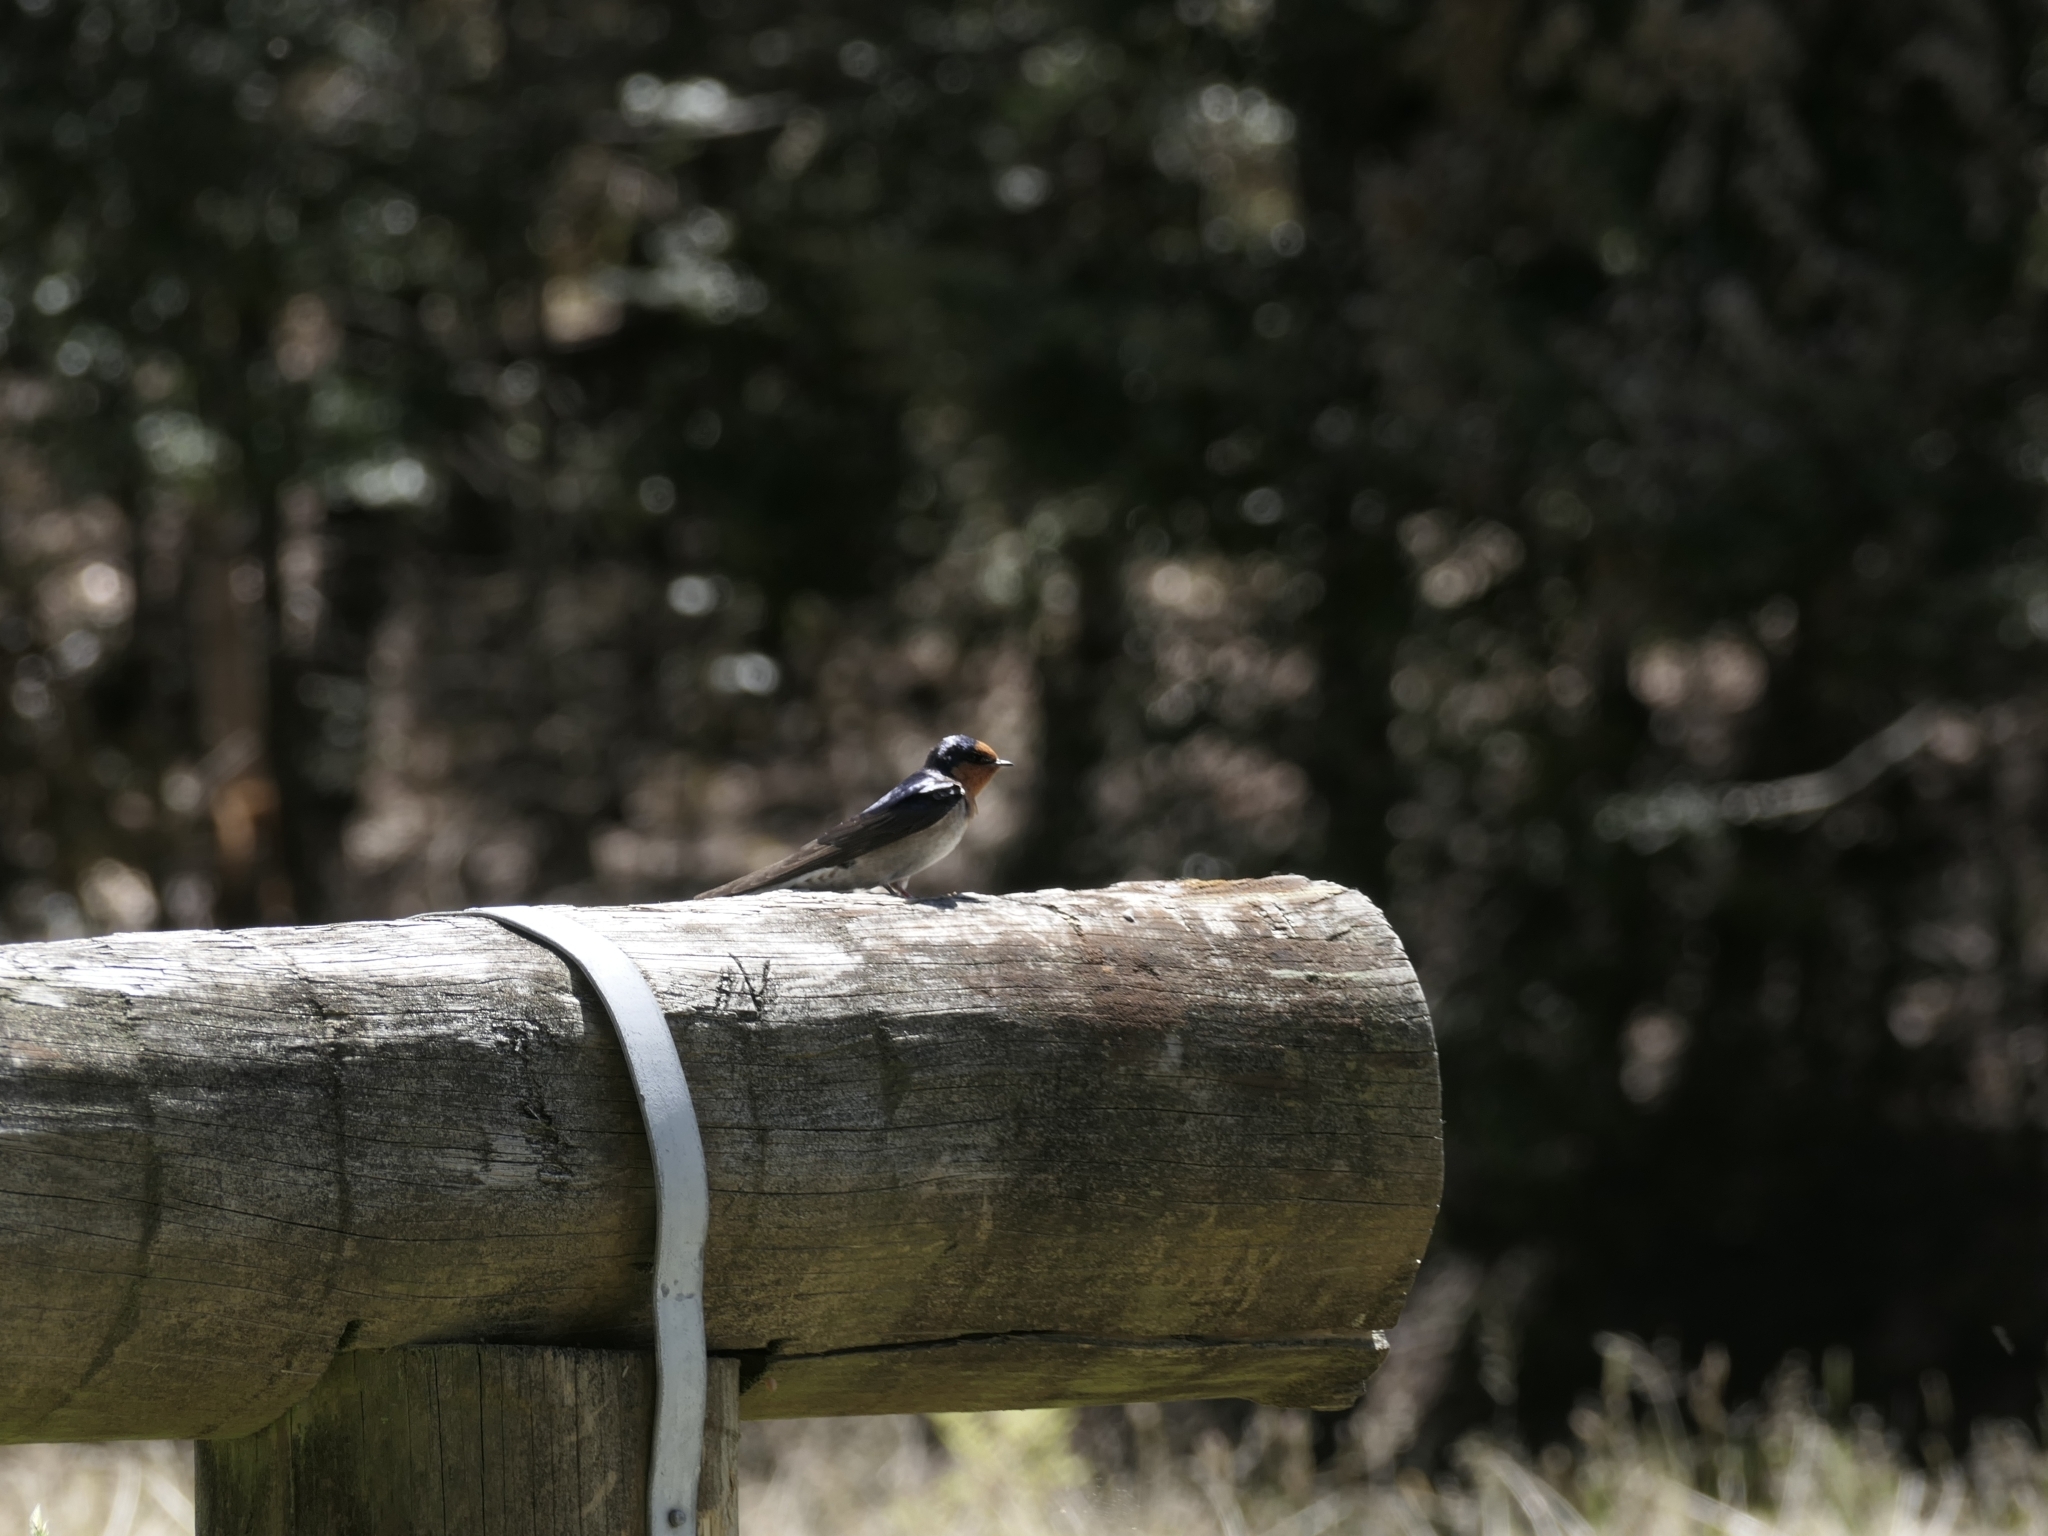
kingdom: Animalia
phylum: Chordata
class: Aves
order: Passeriformes
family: Hirundinidae
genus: Hirundo
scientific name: Hirundo neoxena
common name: Welcome swallow
